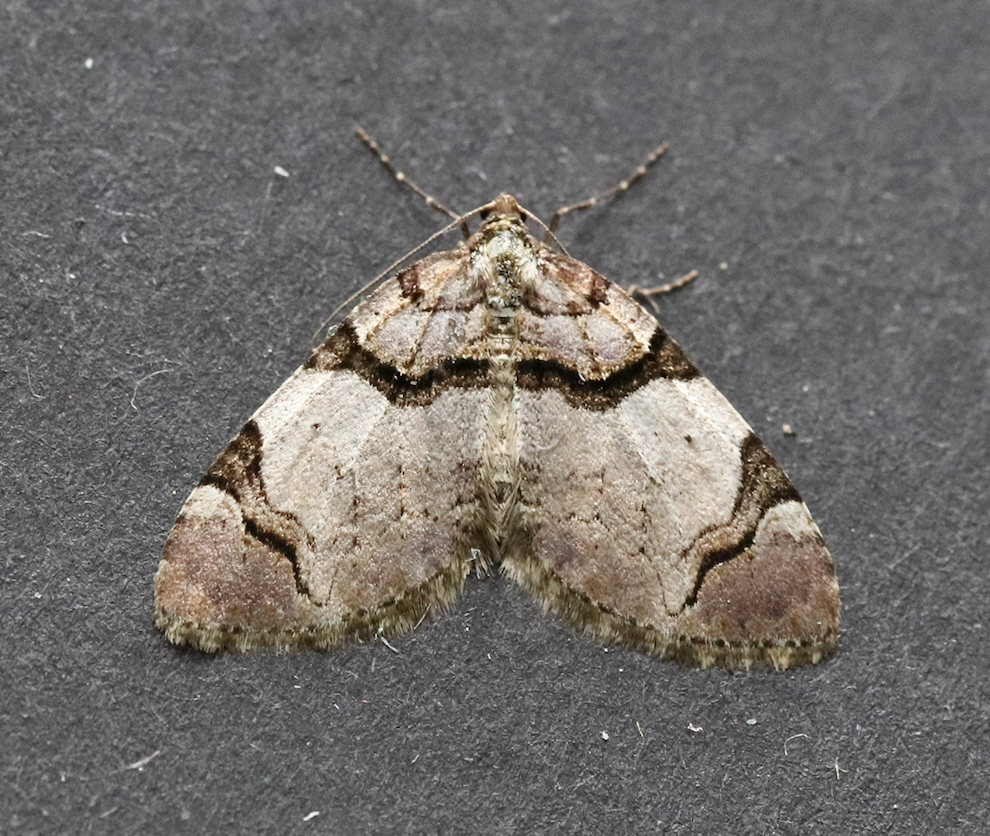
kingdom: Animalia
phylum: Arthropoda
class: Insecta
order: Lepidoptera
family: Geometridae
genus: Anticlea
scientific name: Anticlea derivata
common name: Streamer
